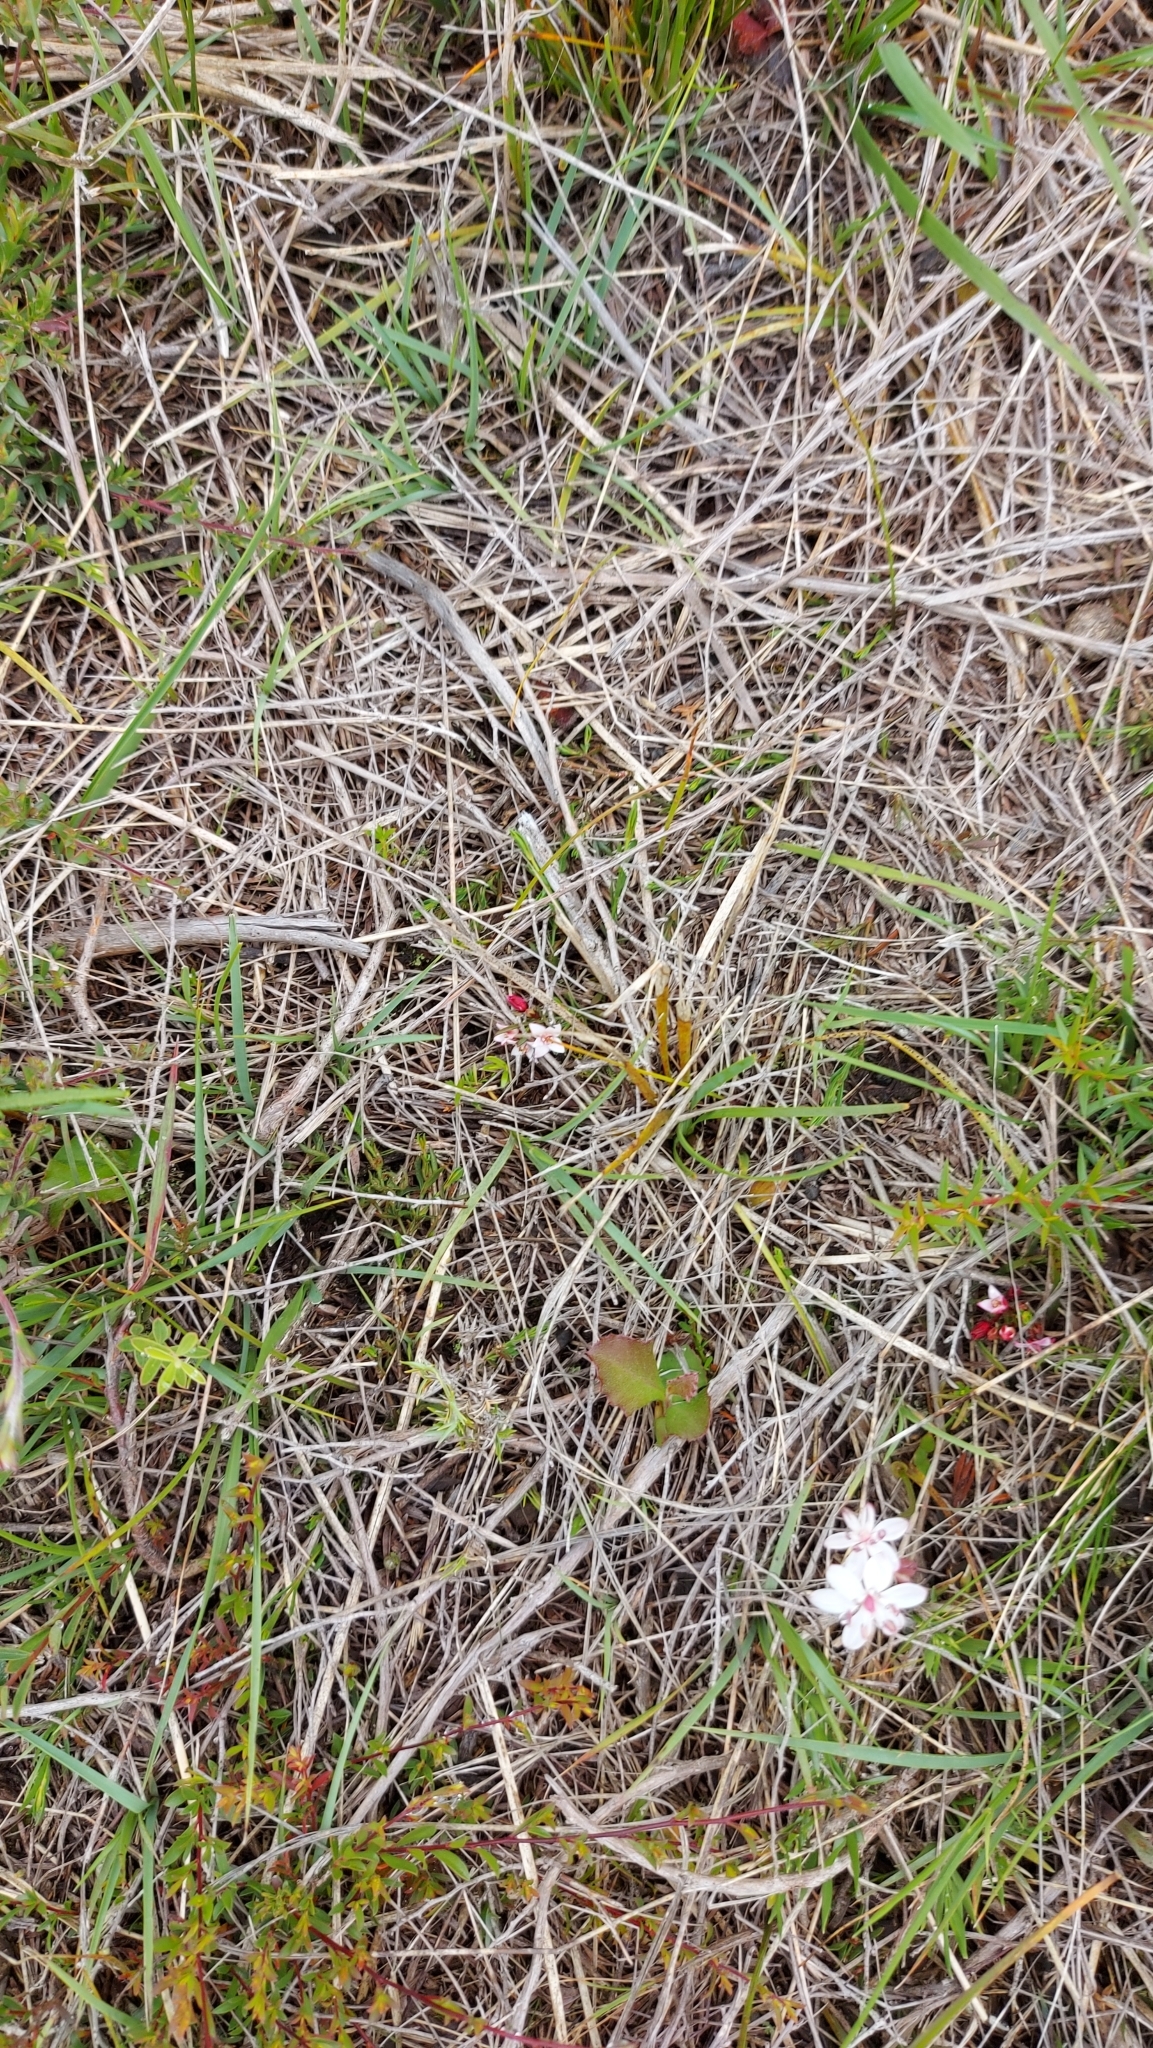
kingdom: Plantae
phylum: Tracheophyta
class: Magnoliopsida
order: Sapindales
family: Rutaceae
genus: Cyanothamnus
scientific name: Cyanothamnus nanus
